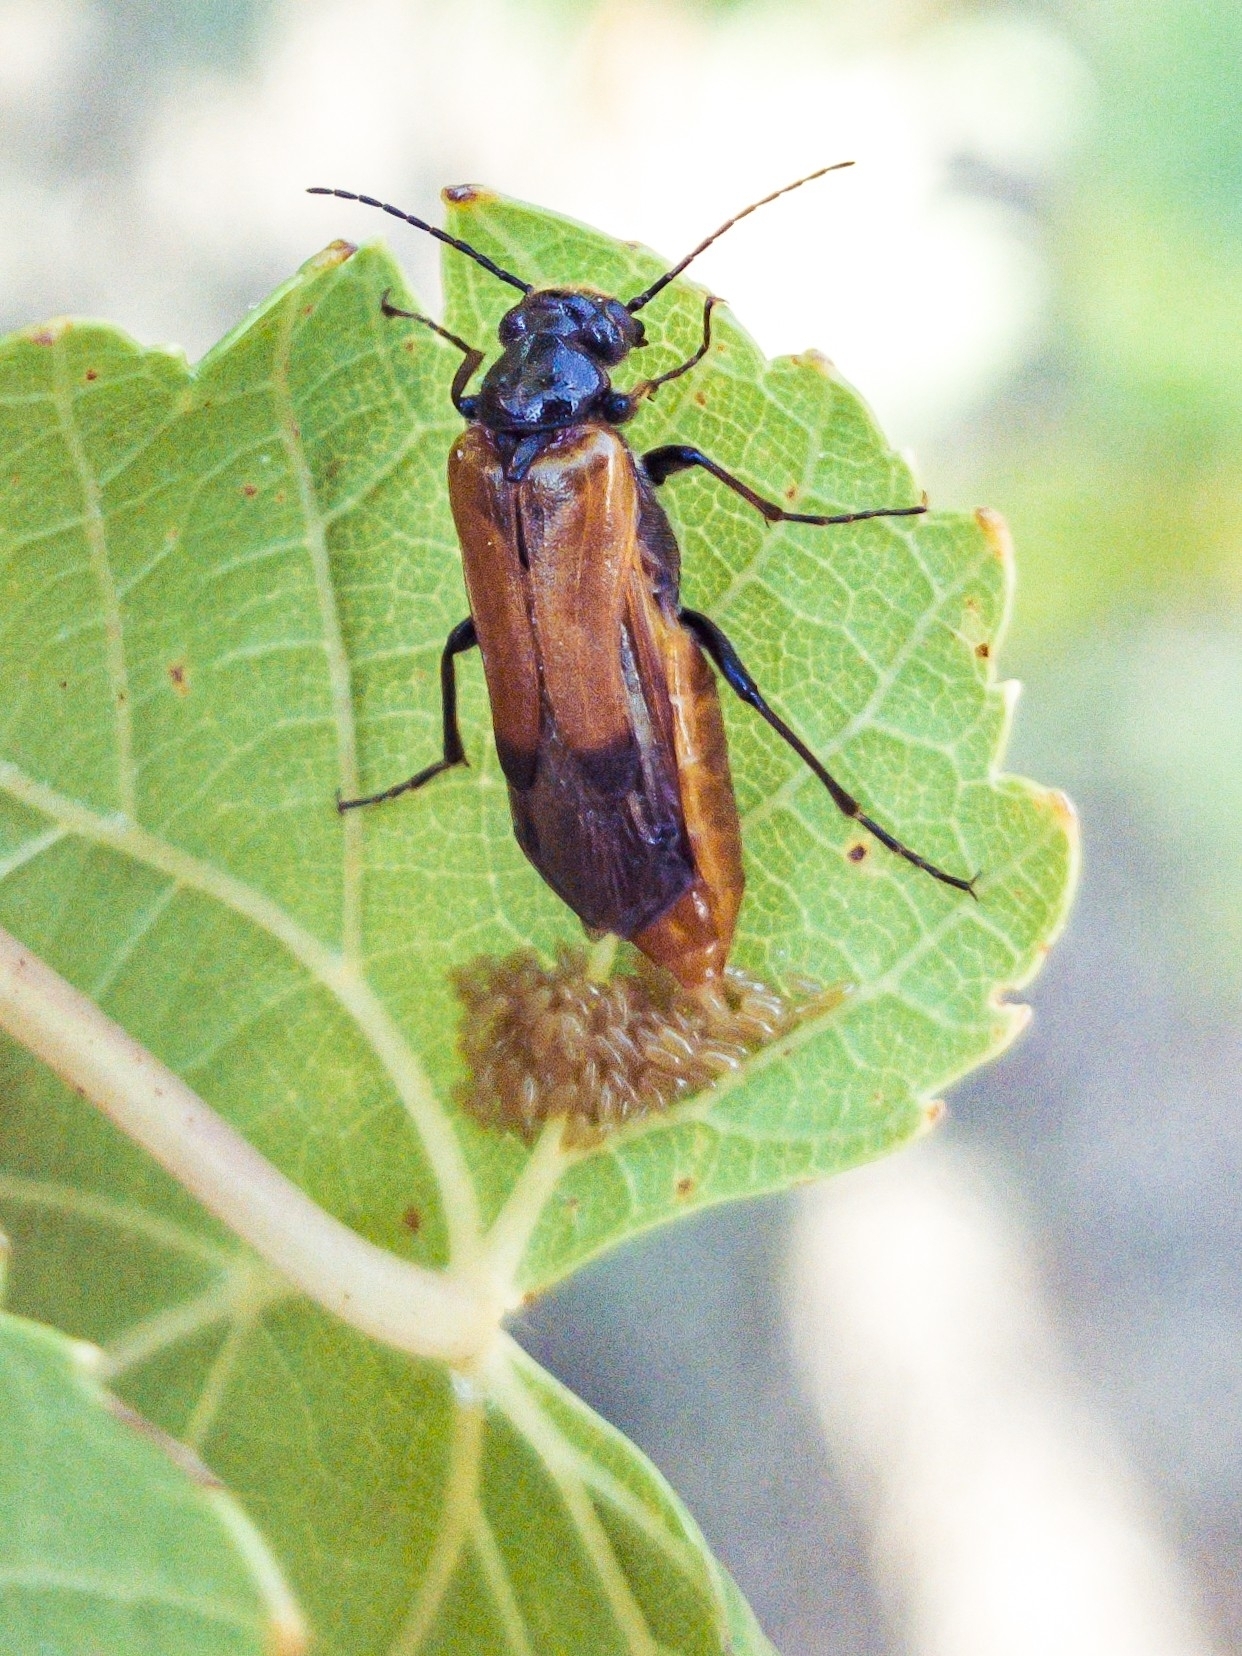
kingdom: Animalia
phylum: Arthropoda
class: Insecta
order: Coleoptera
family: Meloidae
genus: Stenoria
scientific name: Stenoria analis
